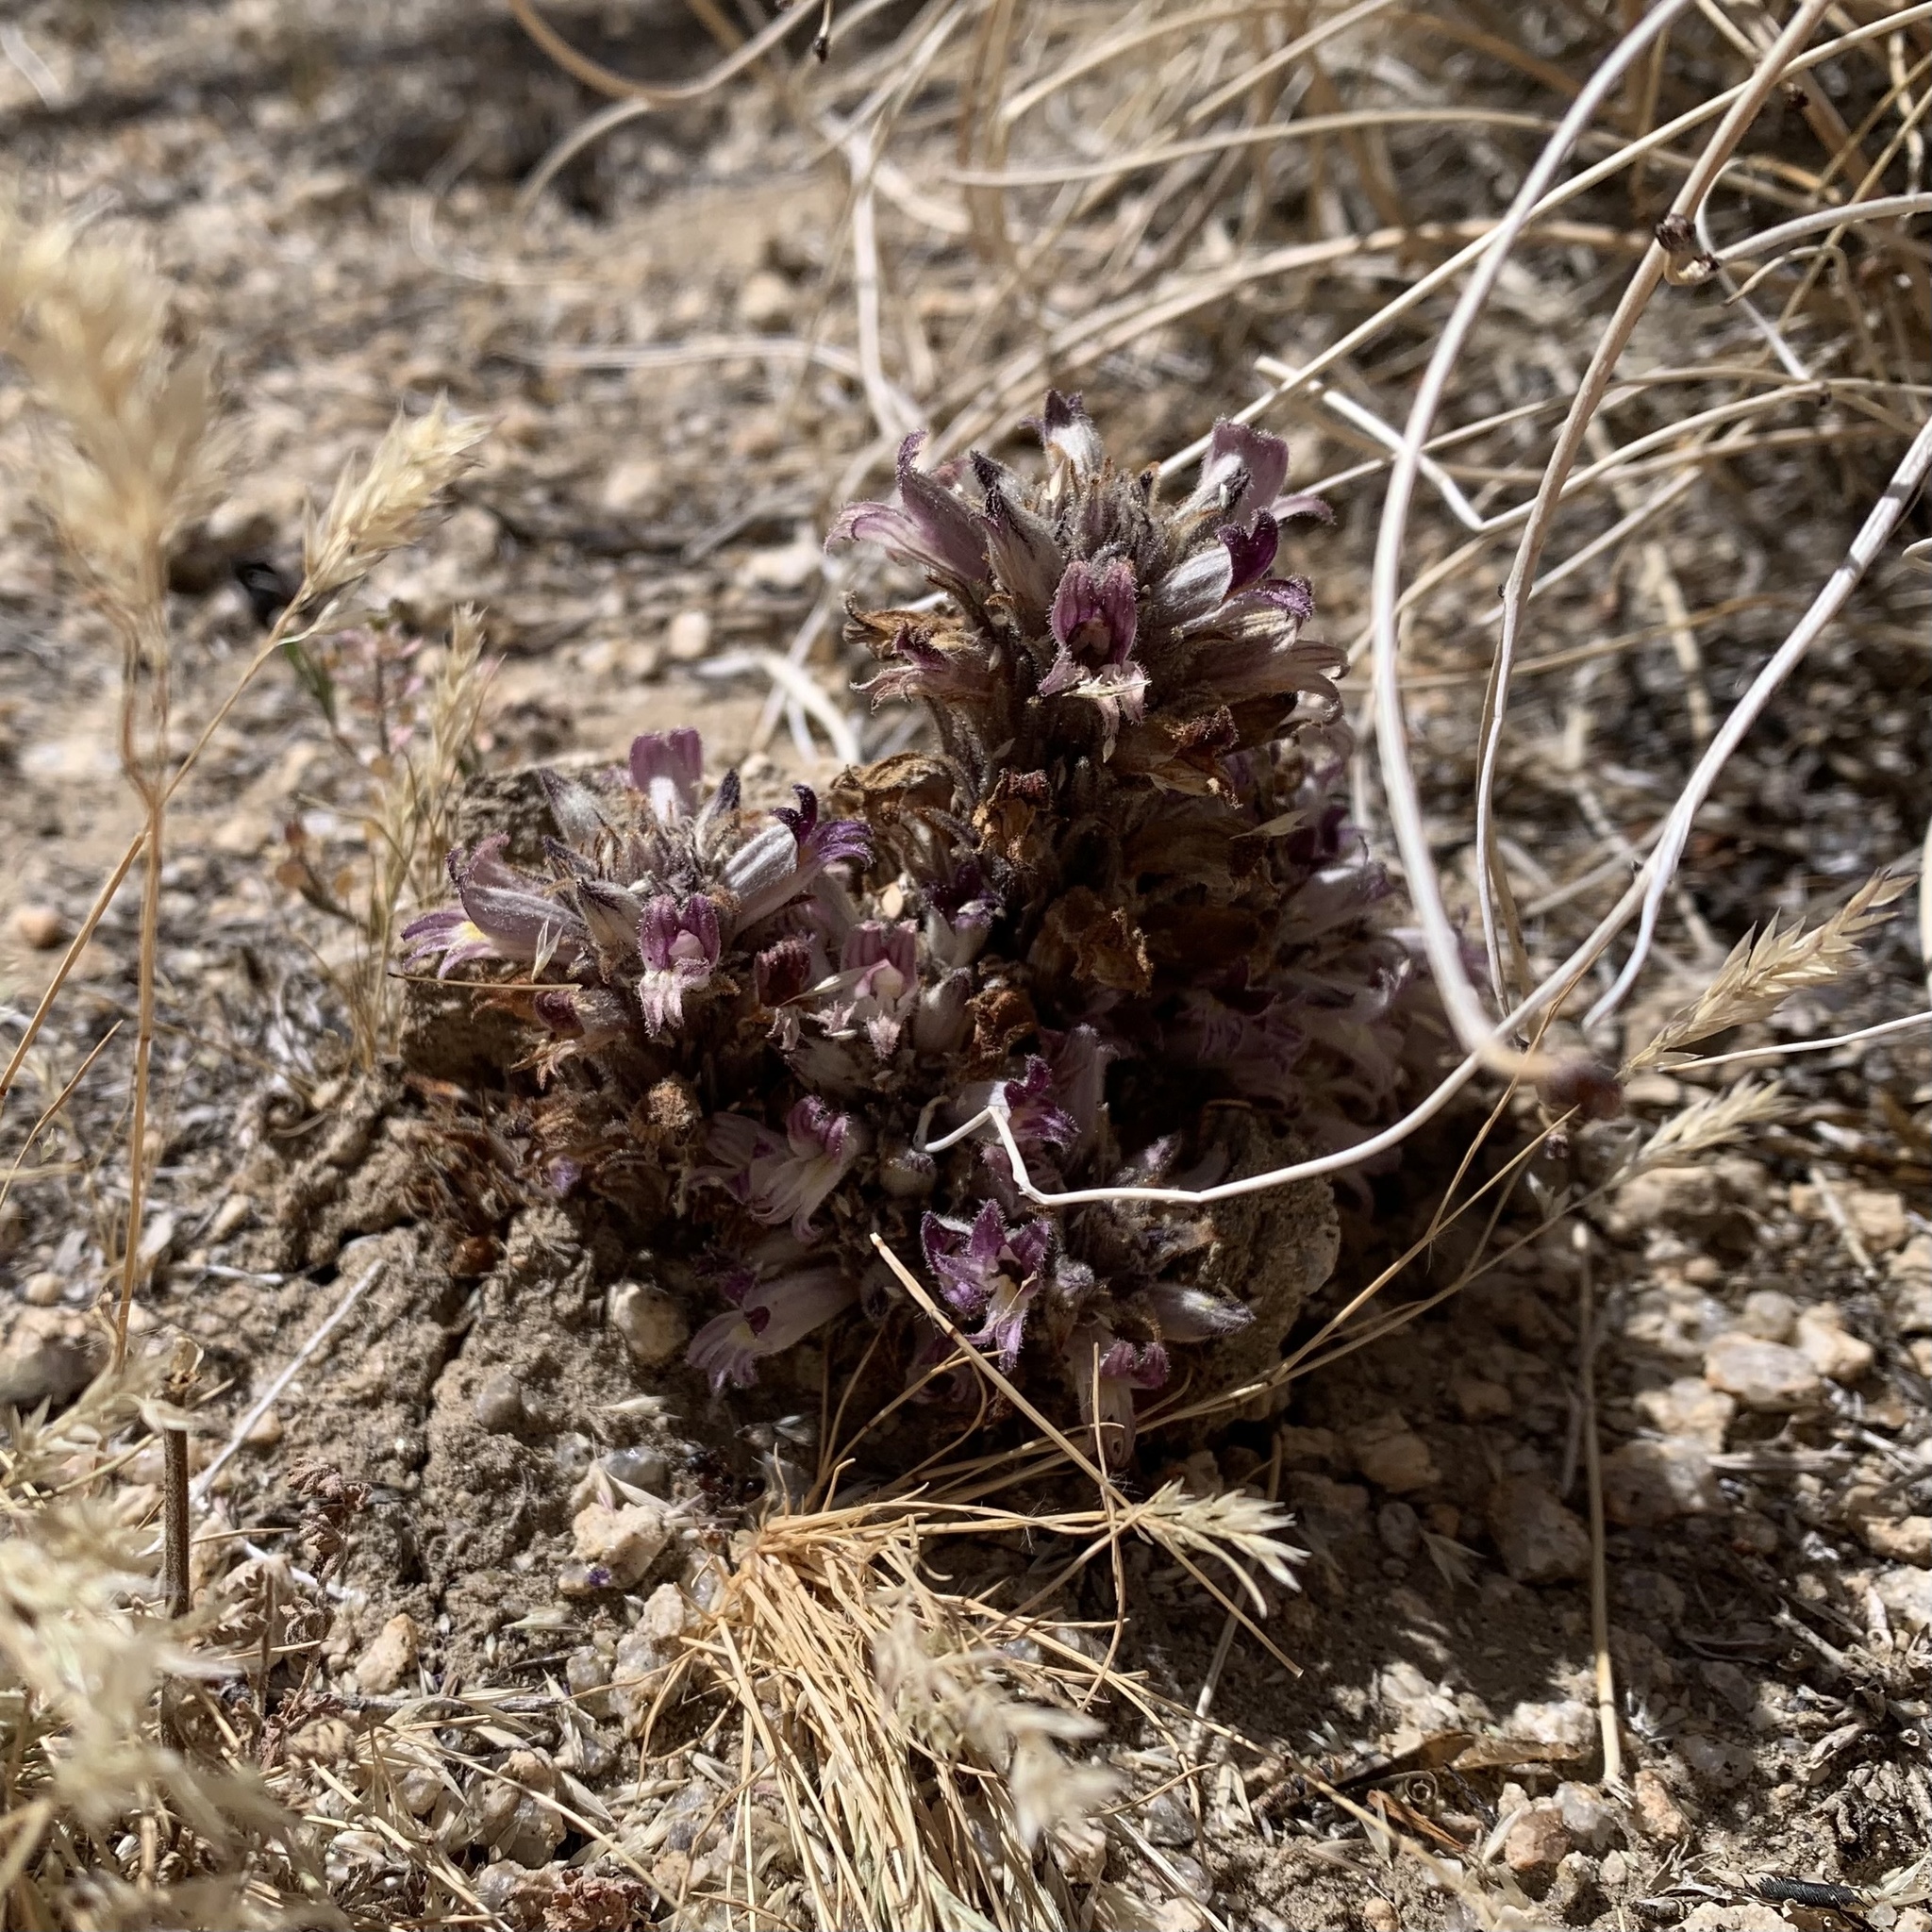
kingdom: Plantae
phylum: Tracheophyta
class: Magnoliopsida
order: Lamiales
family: Orobanchaceae
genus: Aphyllon
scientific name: Aphyllon cooperi
